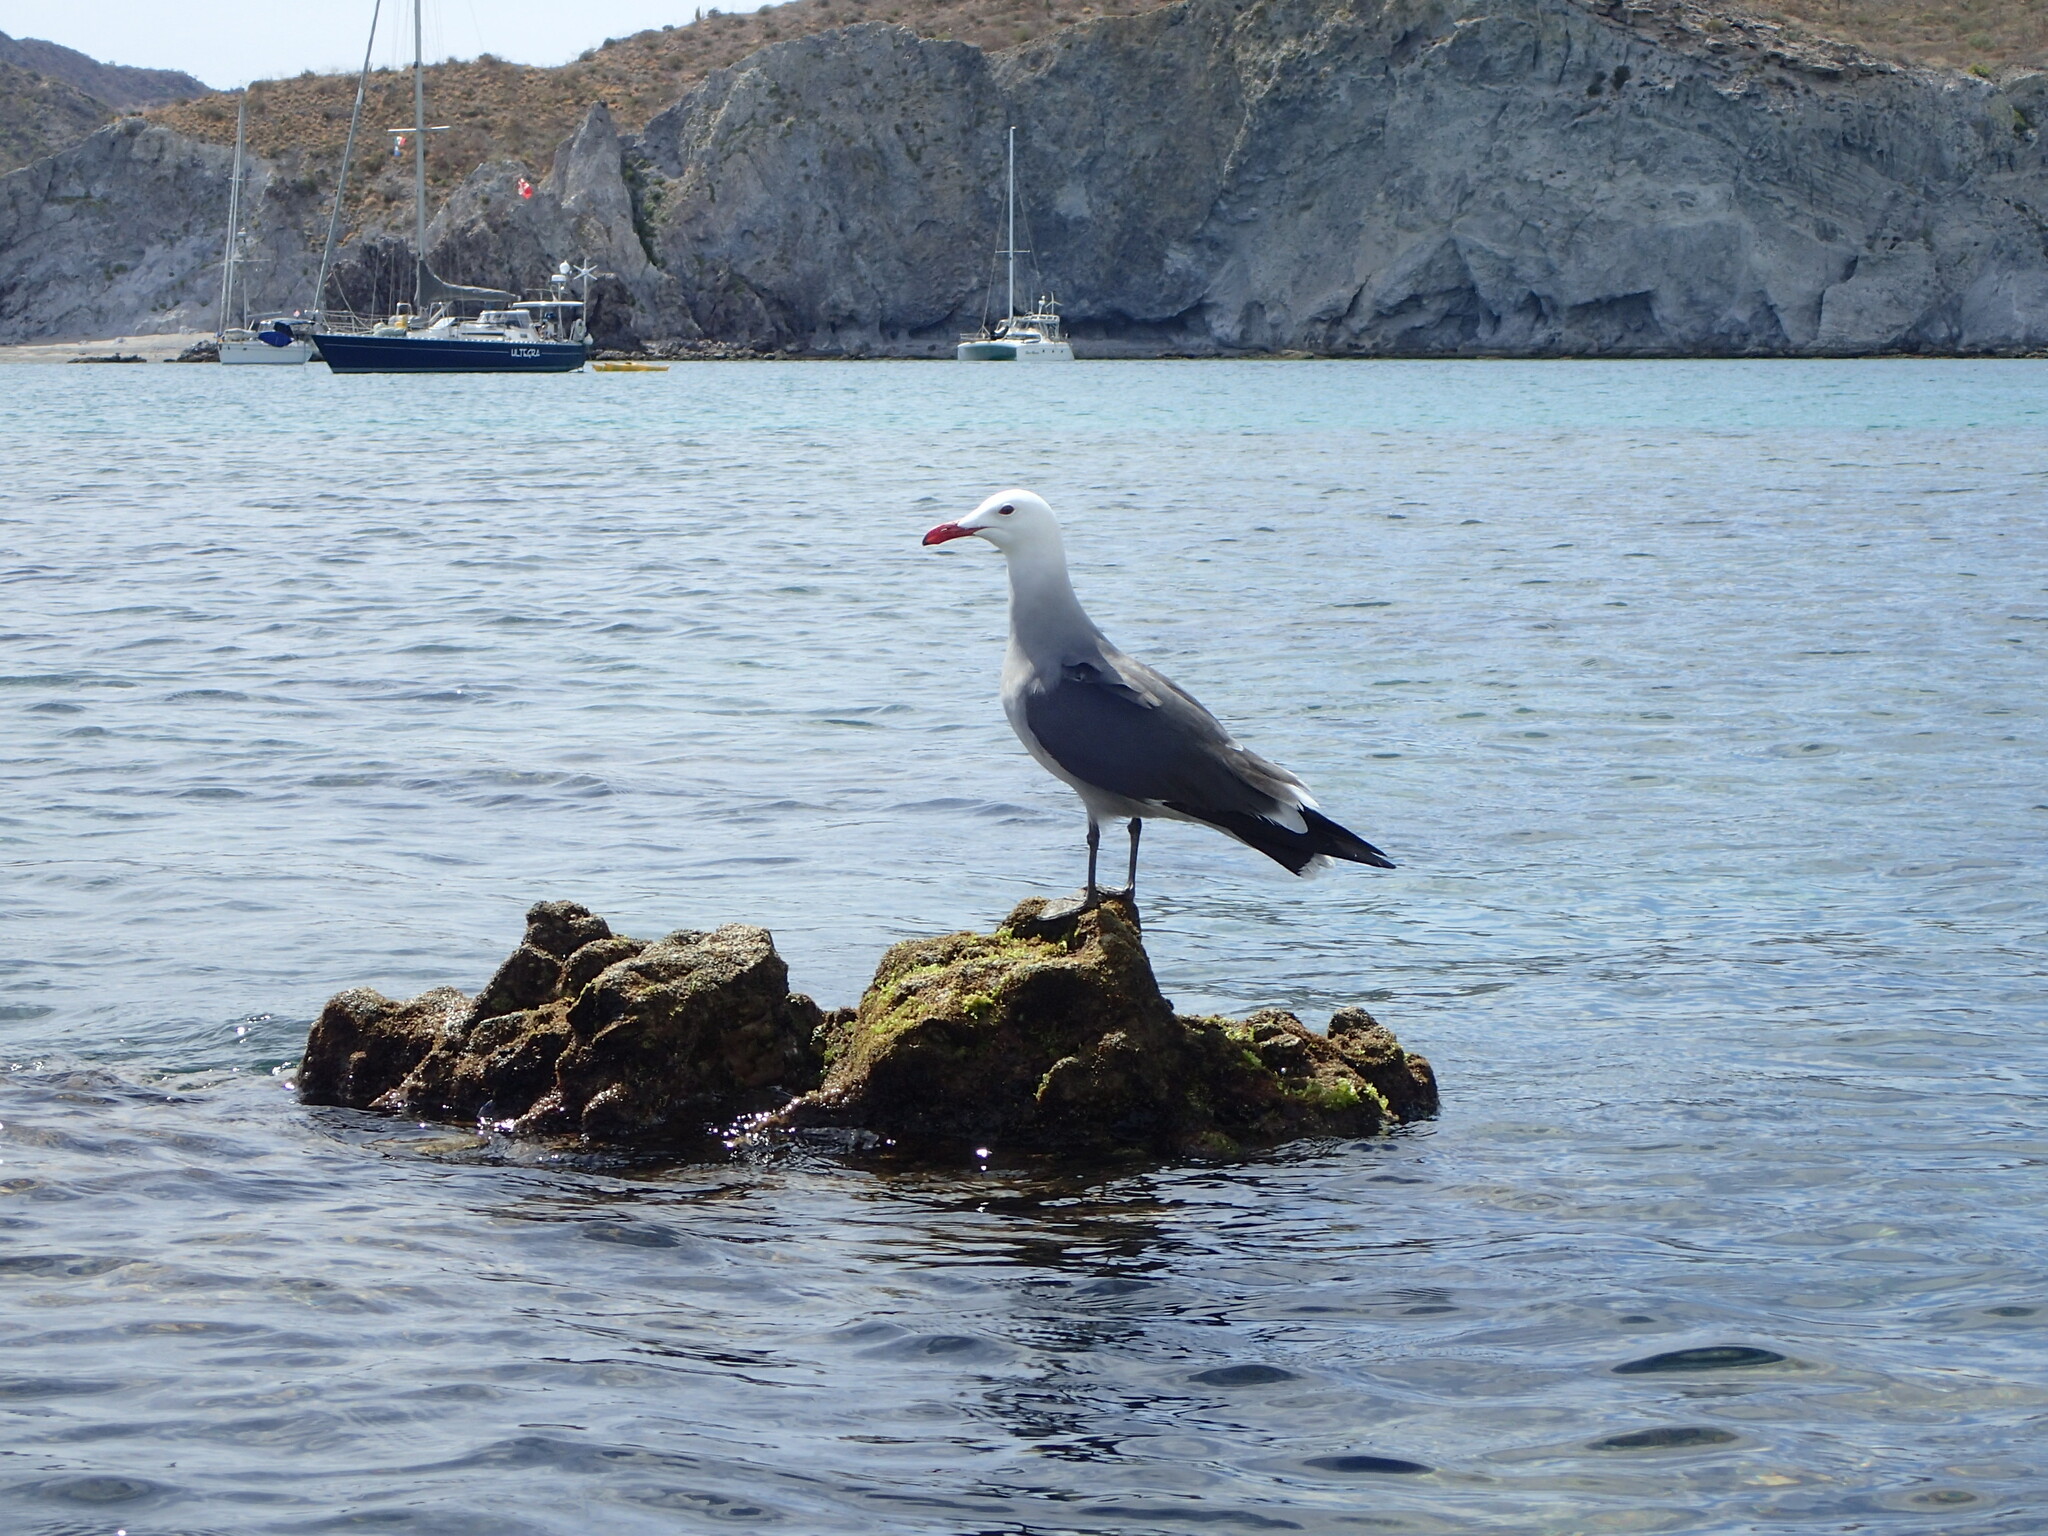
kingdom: Animalia
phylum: Chordata
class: Aves
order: Charadriiformes
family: Laridae
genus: Larus
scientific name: Larus heermanni
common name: Heermann's gull
